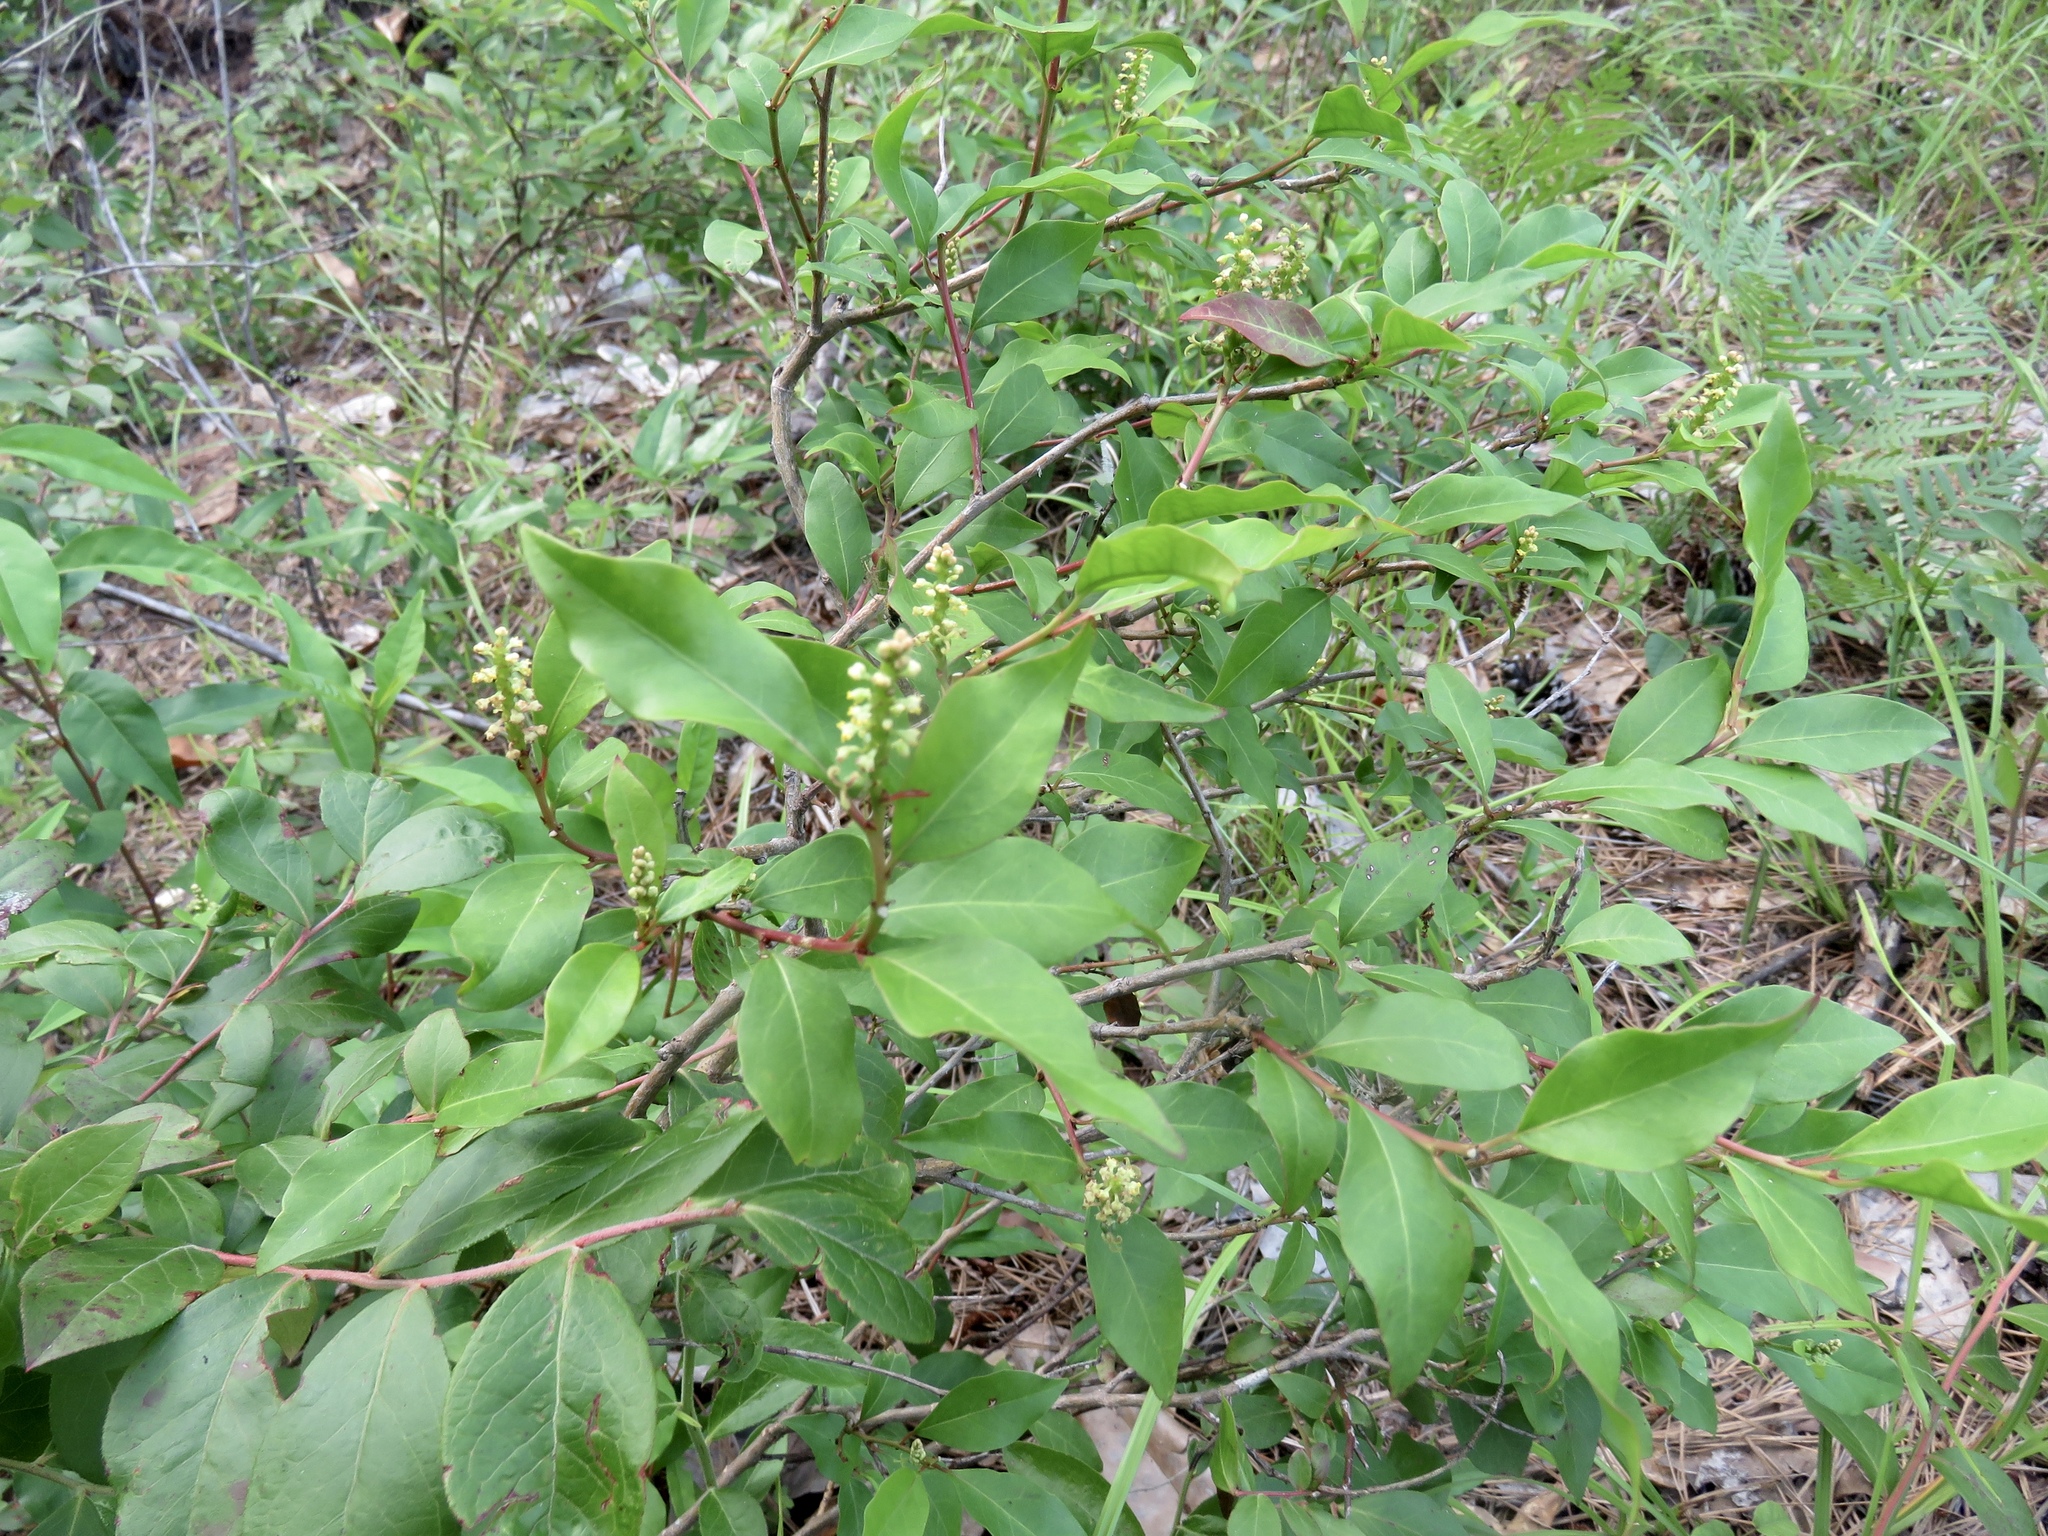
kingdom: Plantae
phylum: Tracheophyta
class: Magnoliopsida
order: Malpighiales
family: Euphorbiaceae
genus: Ditrysinia
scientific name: Ditrysinia fruticosa
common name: Gulf sebastian-bush
